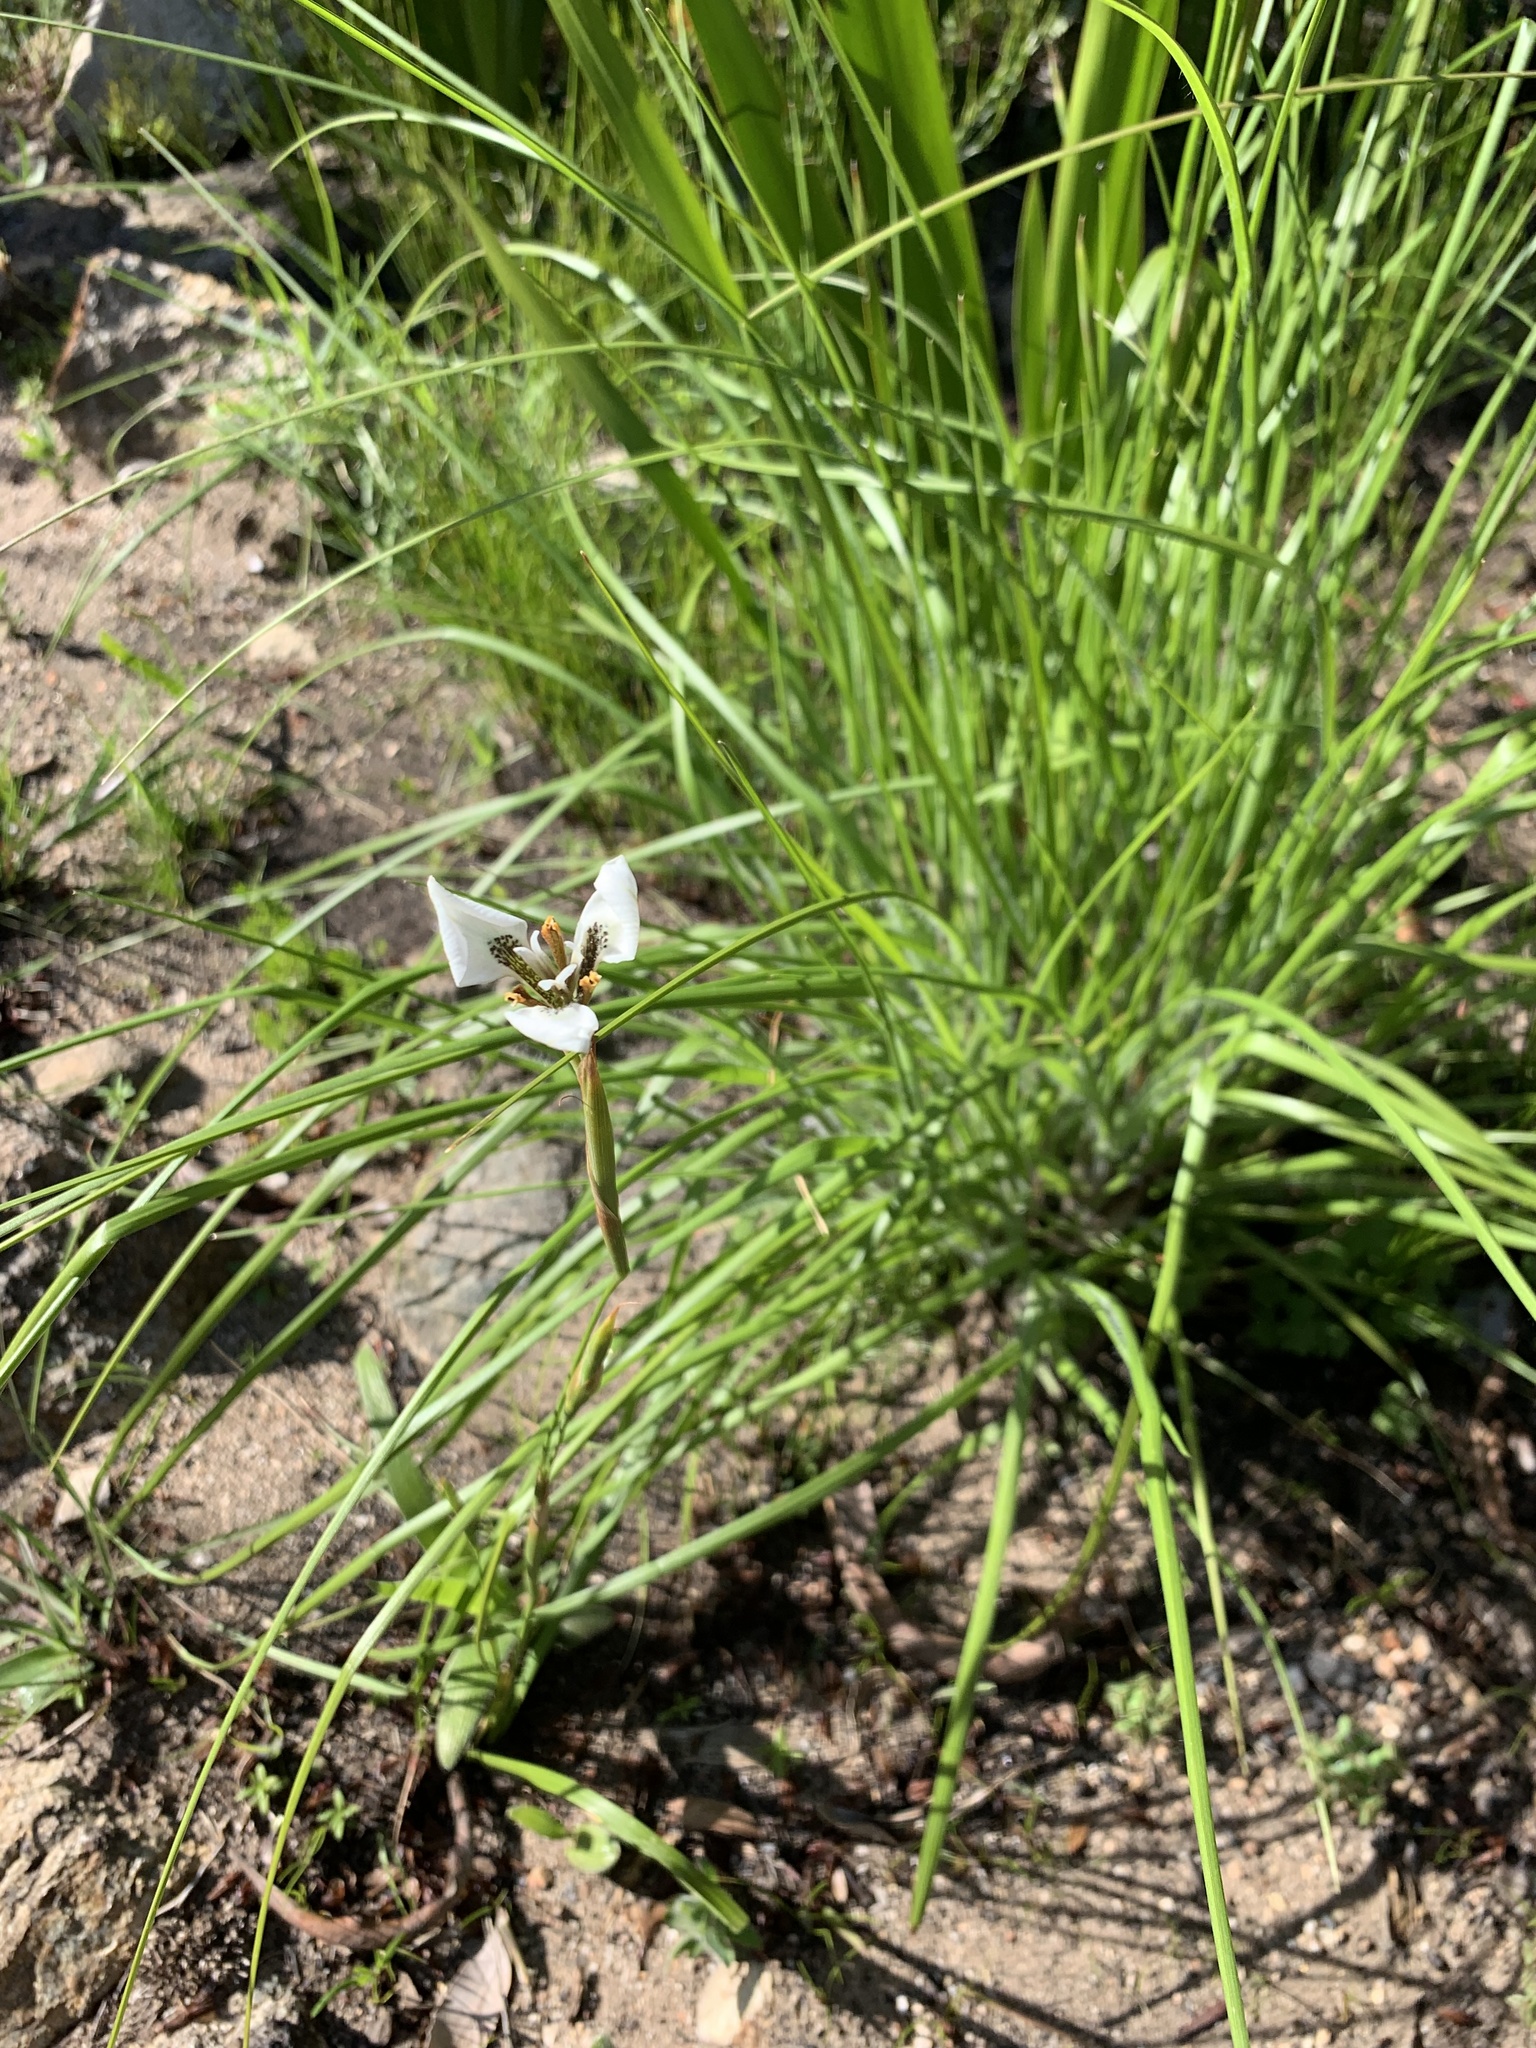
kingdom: Plantae
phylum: Tracheophyta
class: Liliopsida
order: Asparagales
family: Iridaceae
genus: Moraea
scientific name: Moraea tricuspidata
